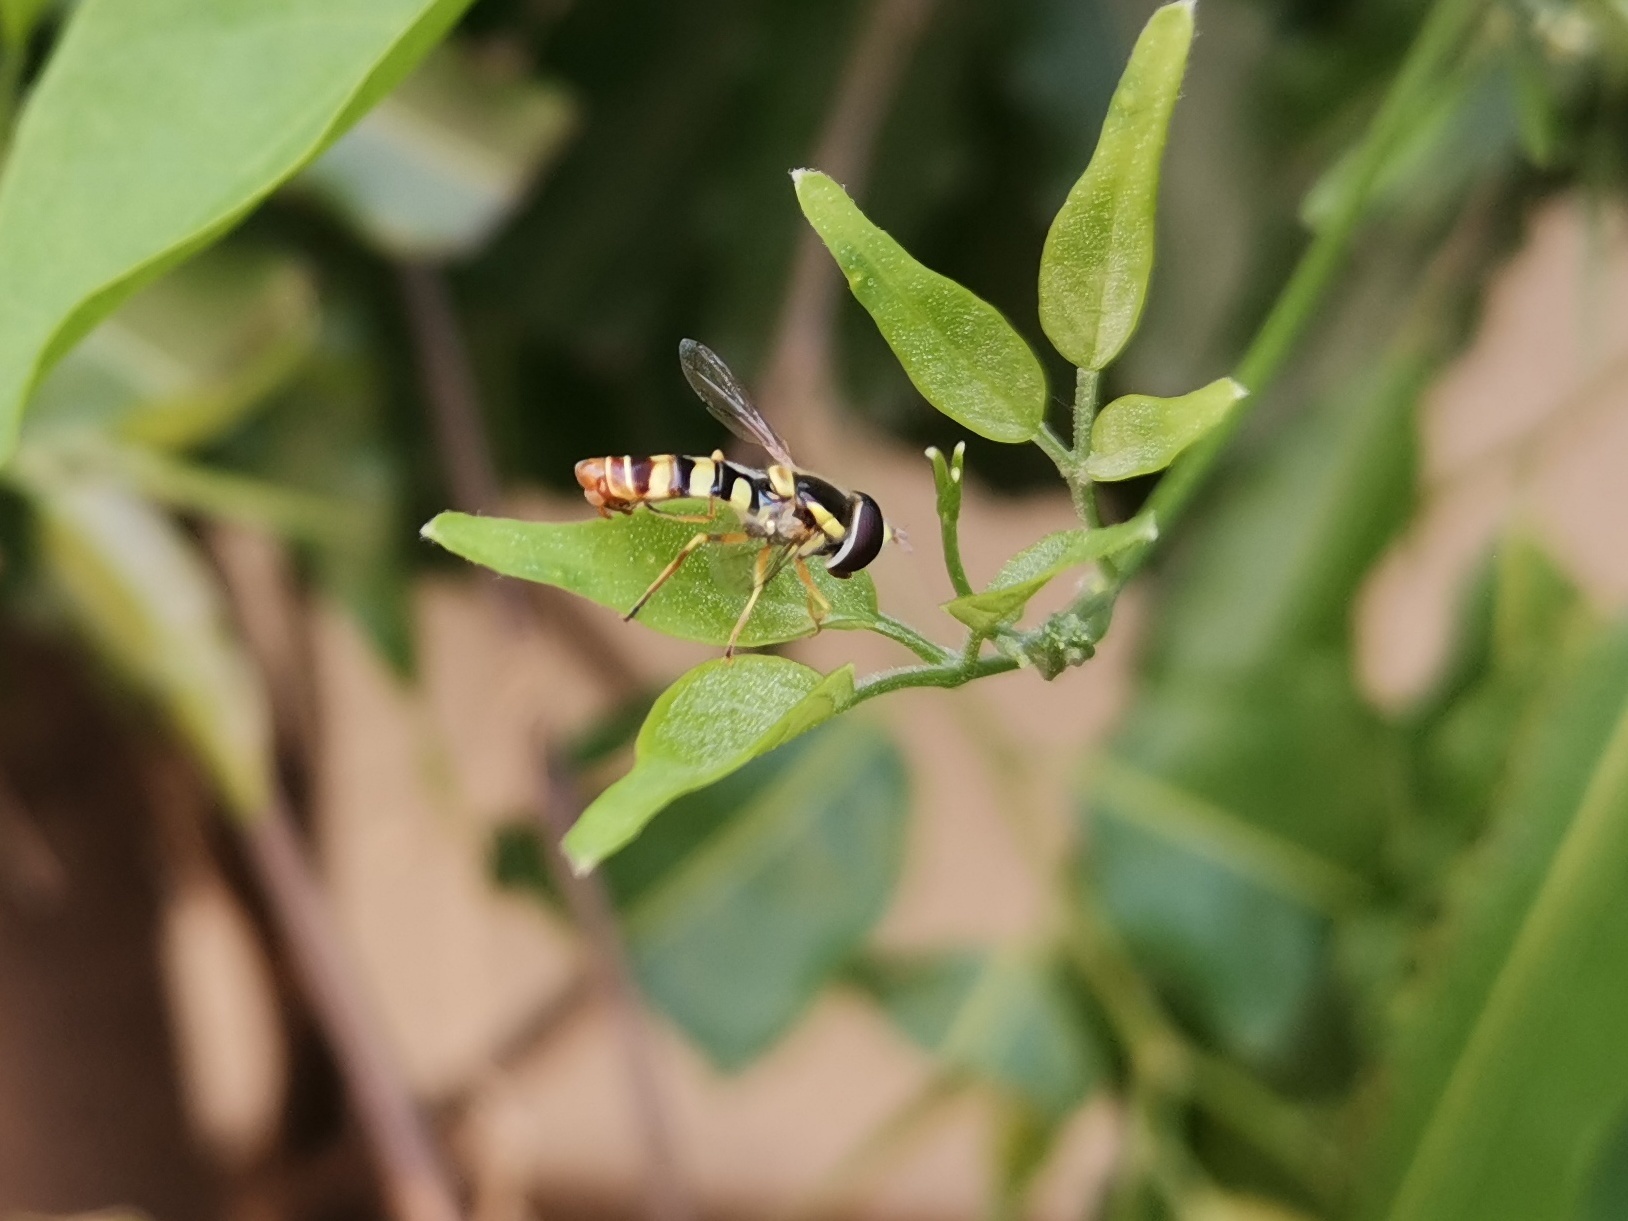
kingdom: Animalia
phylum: Arthropoda
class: Insecta
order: Diptera
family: Syrphidae
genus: Ischiodon
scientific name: Ischiodon scutellaris
